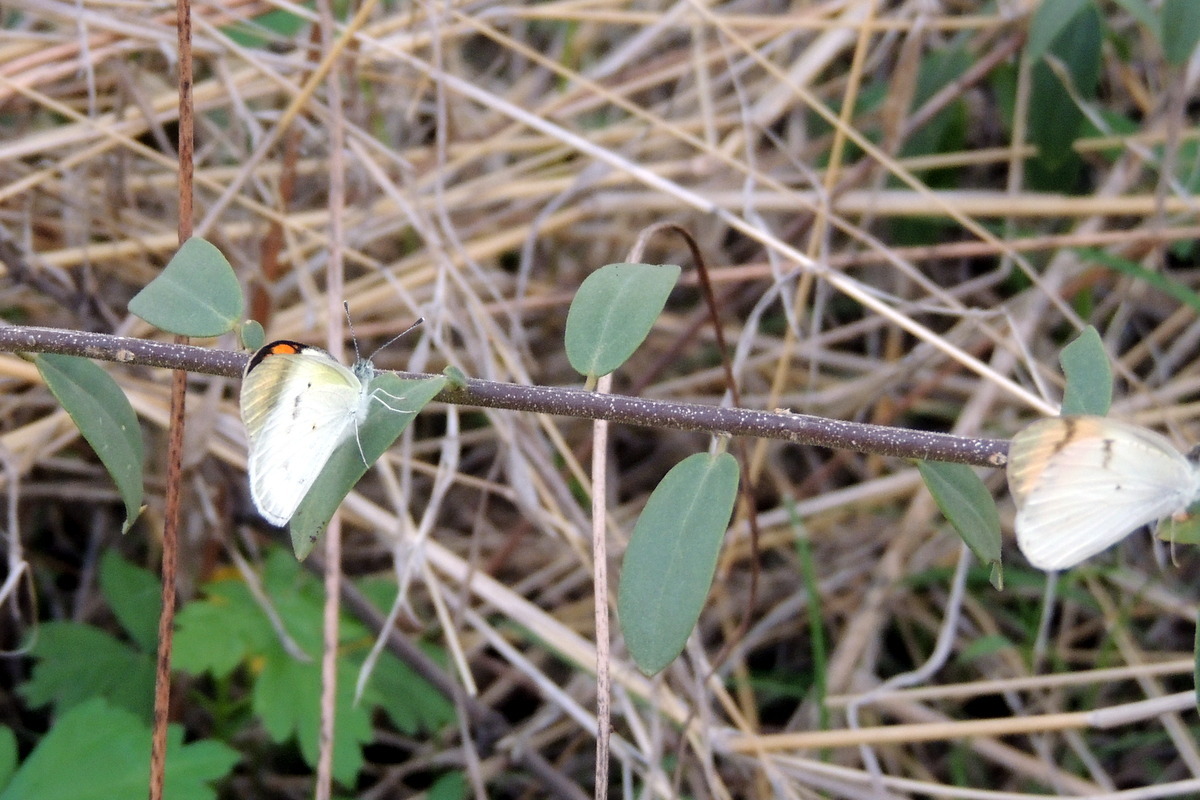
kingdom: Animalia
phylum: Arthropoda
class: Insecta
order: Lepidoptera
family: Pieridae
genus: Ixias
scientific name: Ixias marianne
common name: White orange tip
